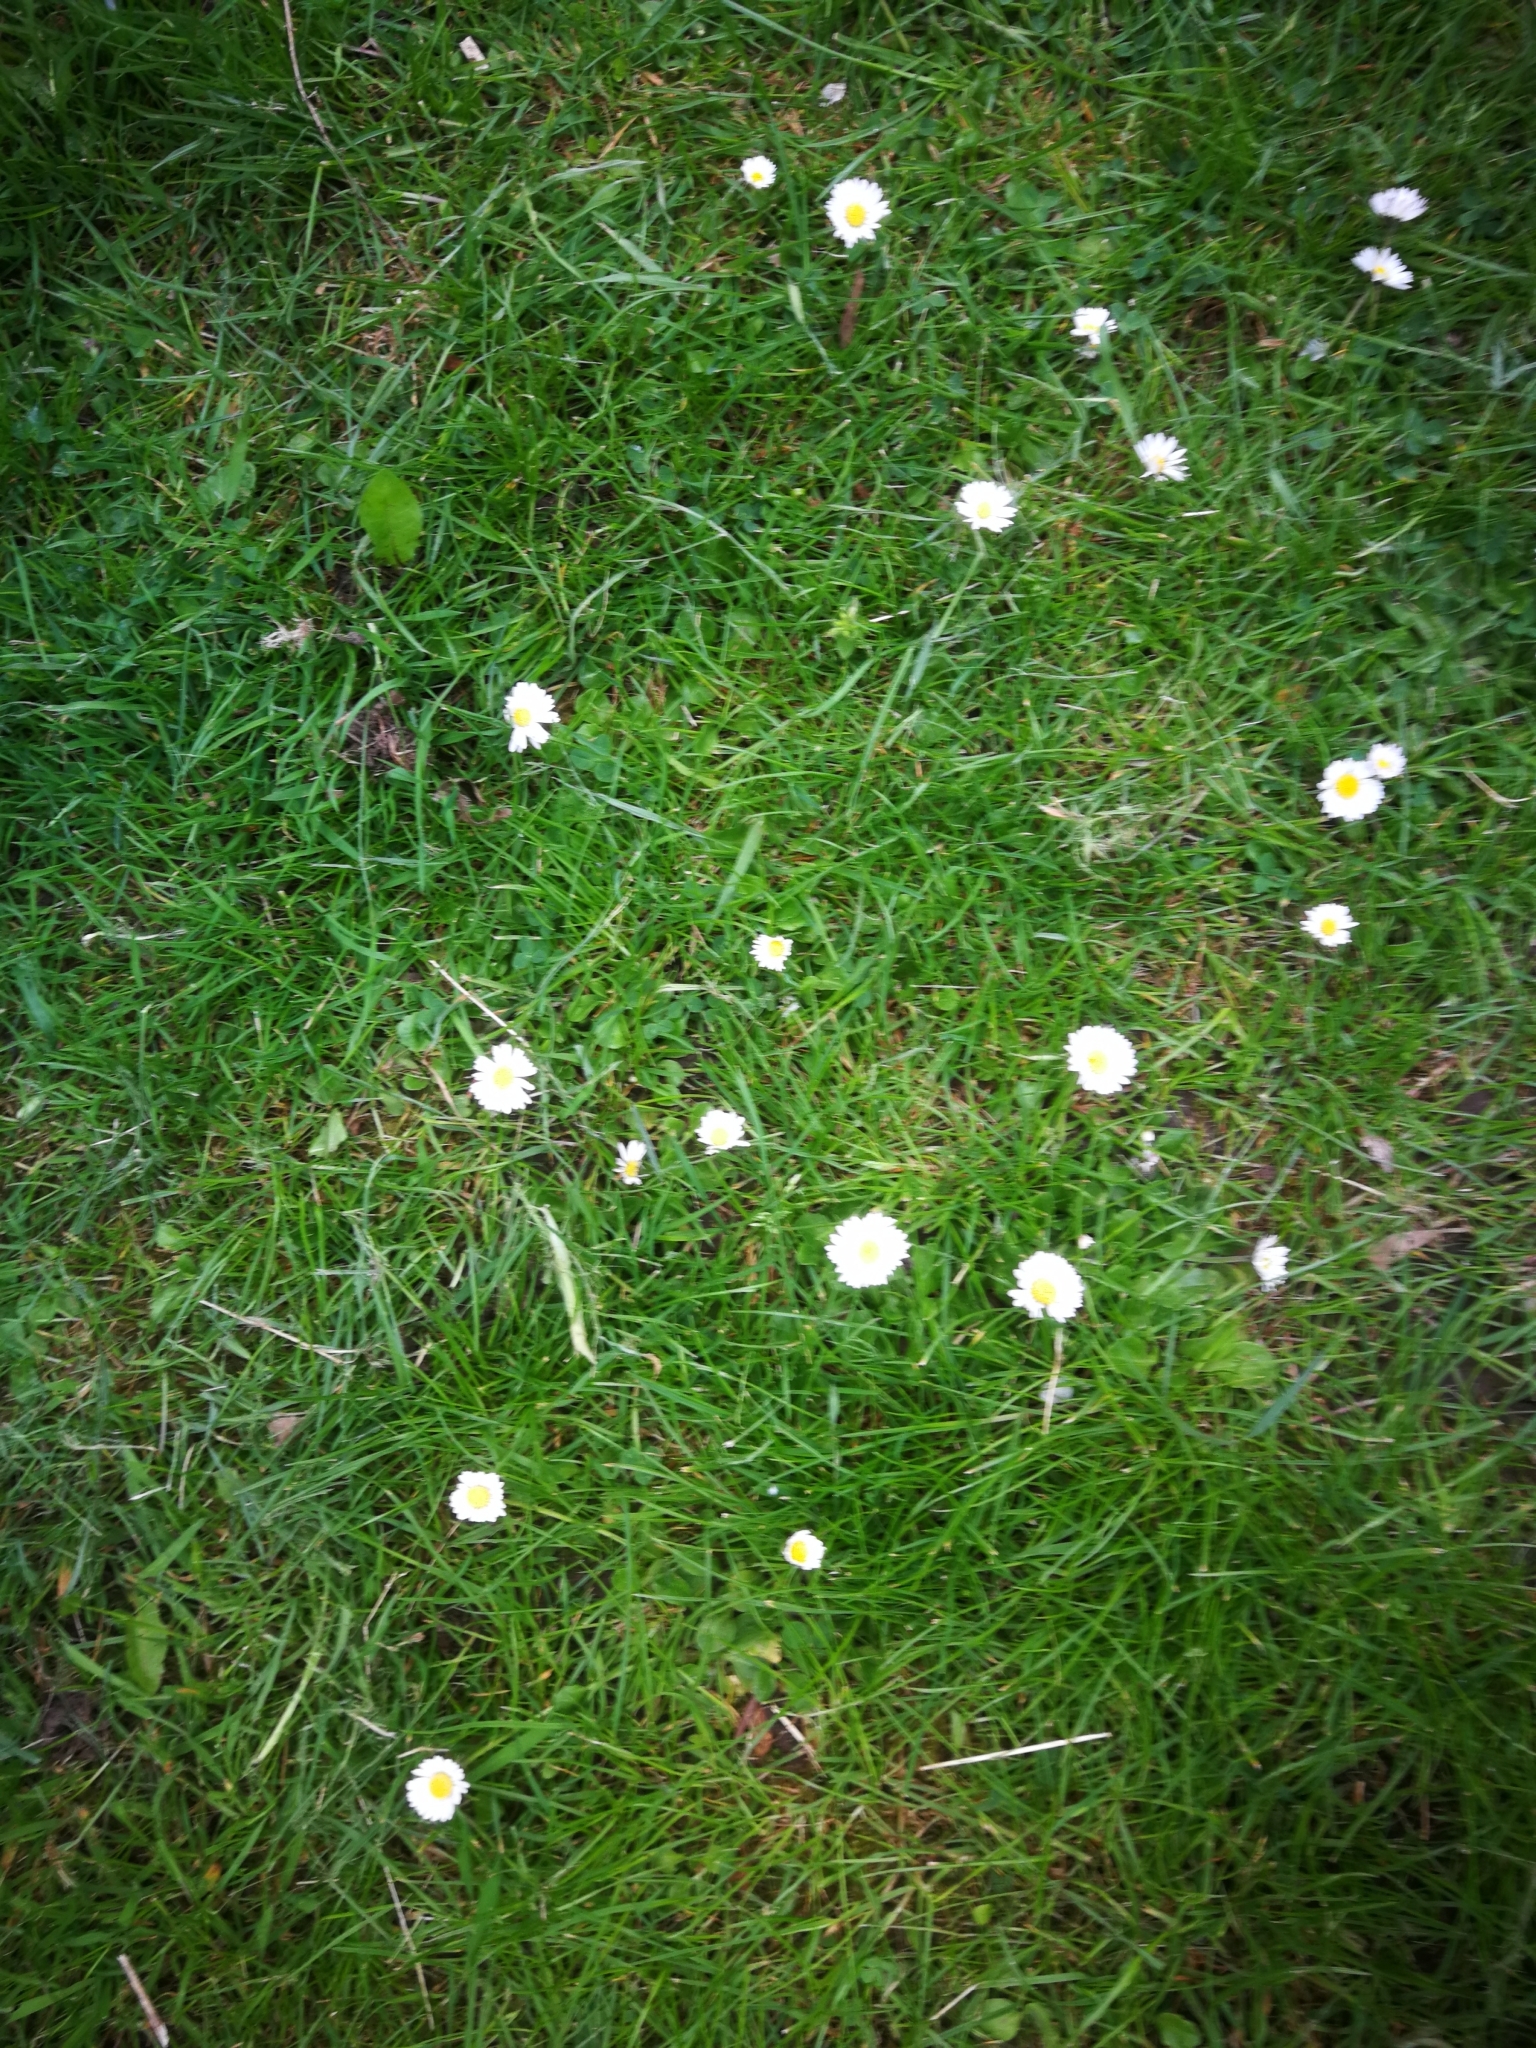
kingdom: Plantae
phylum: Tracheophyta
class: Magnoliopsida
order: Asterales
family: Asteraceae
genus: Bellis
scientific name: Bellis perennis
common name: Lawndaisy
